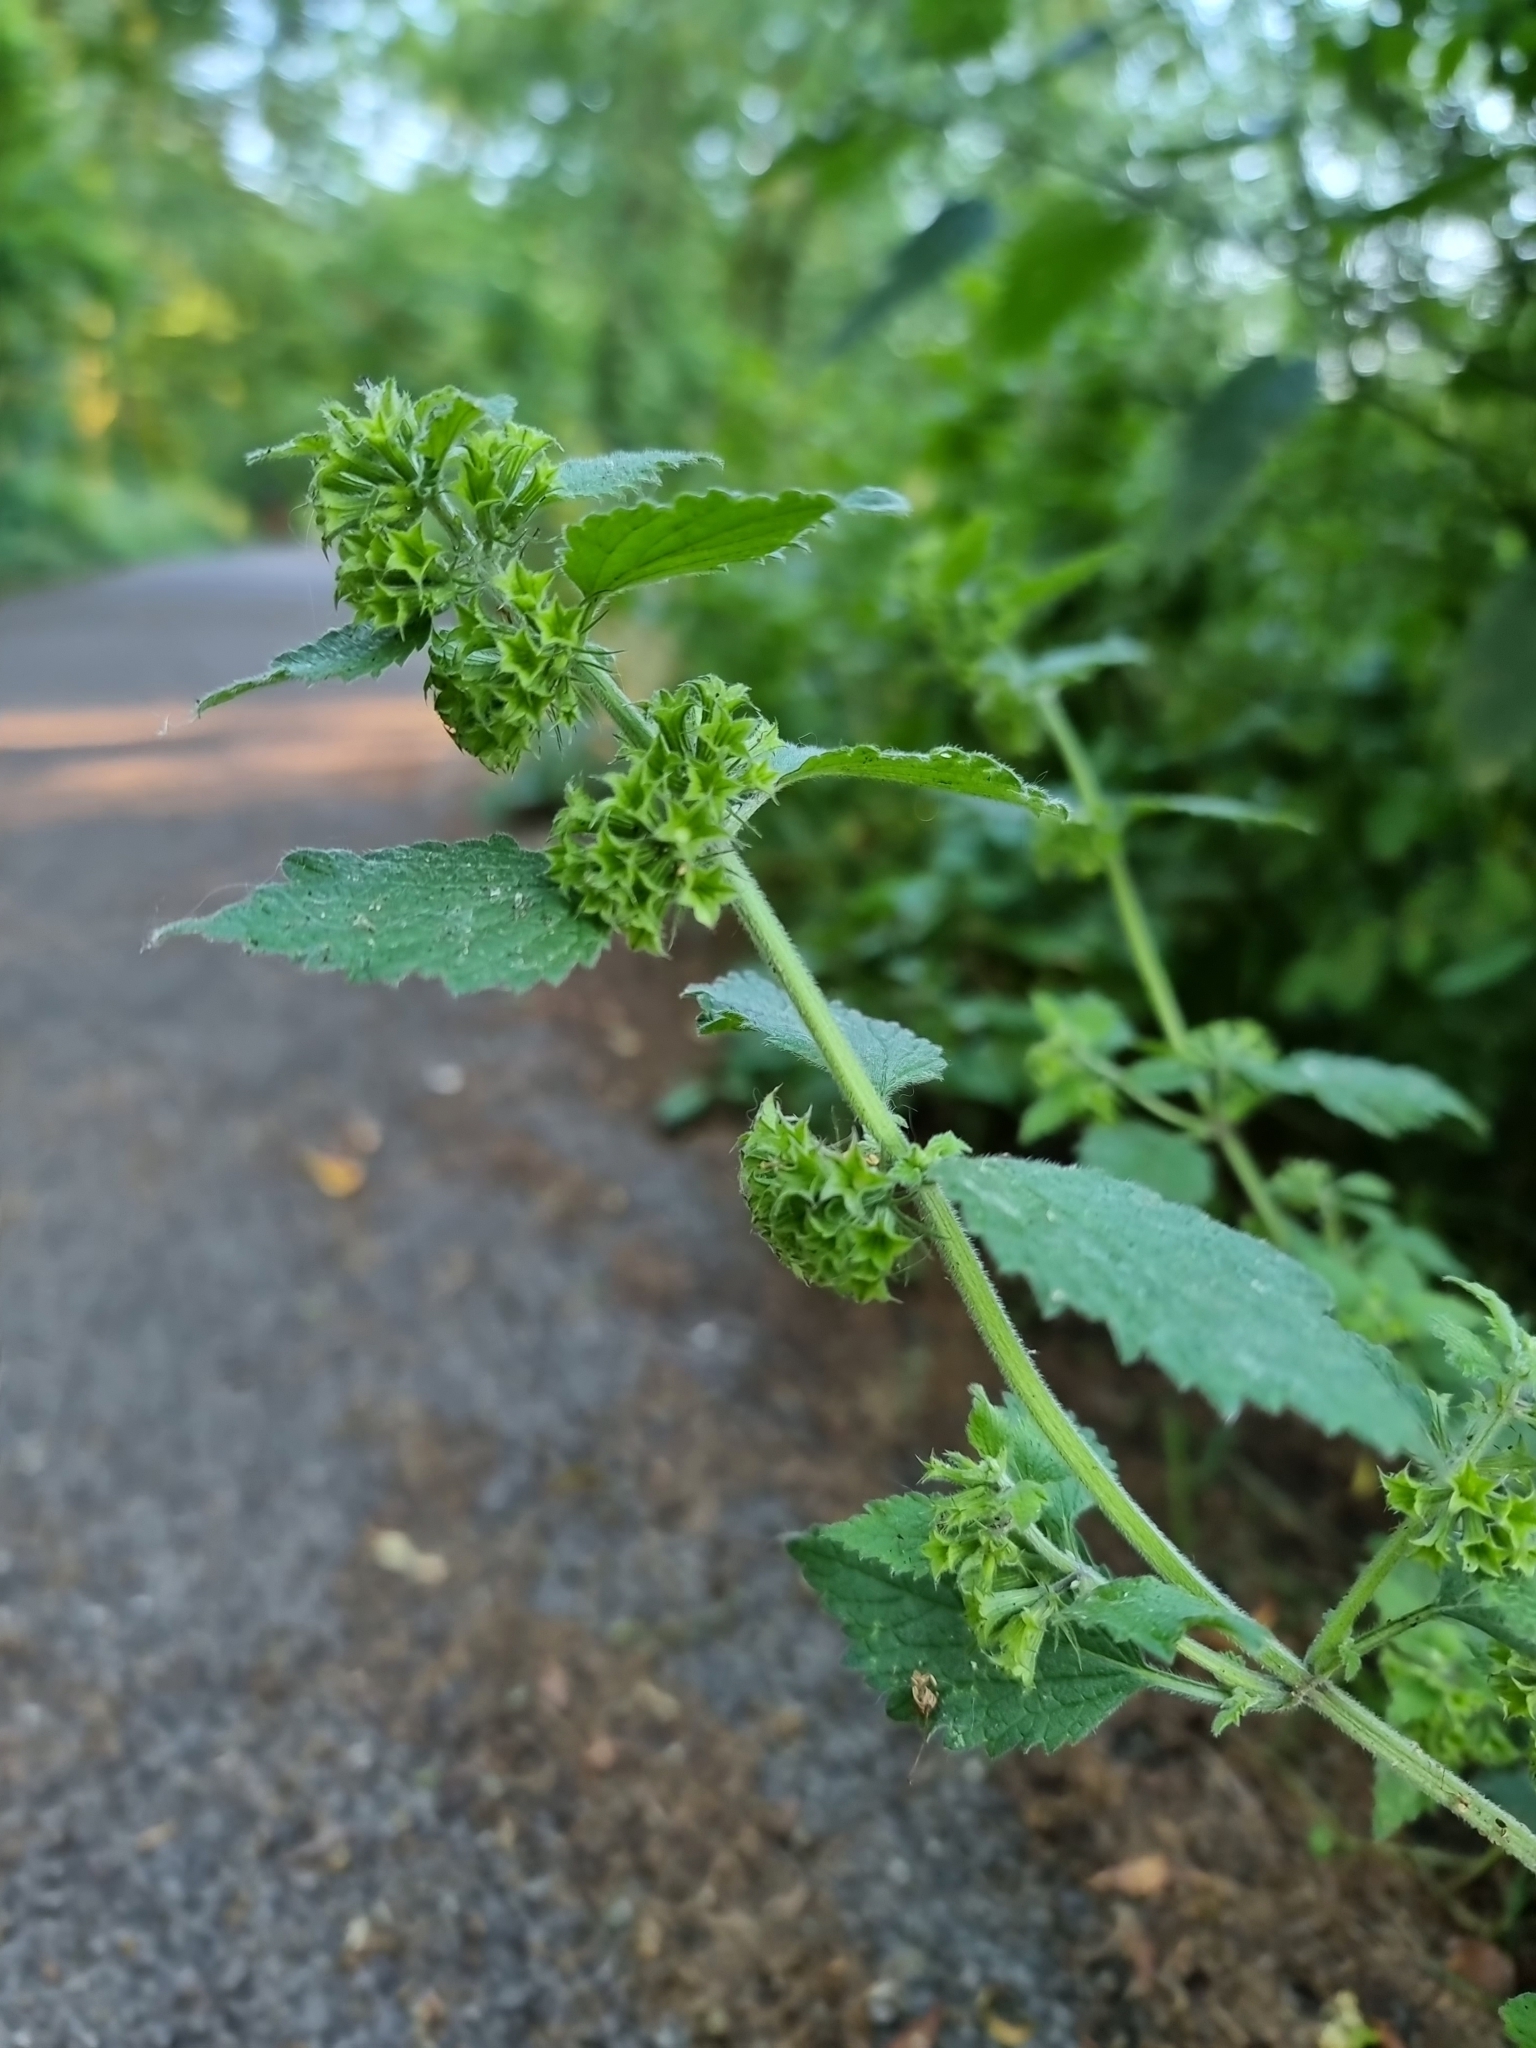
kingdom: Plantae
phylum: Tracheophyta
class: Magnoliopsida
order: Lamiales
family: Lamiaceae
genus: Ballota
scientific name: Ballota nigra
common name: Black horehound
